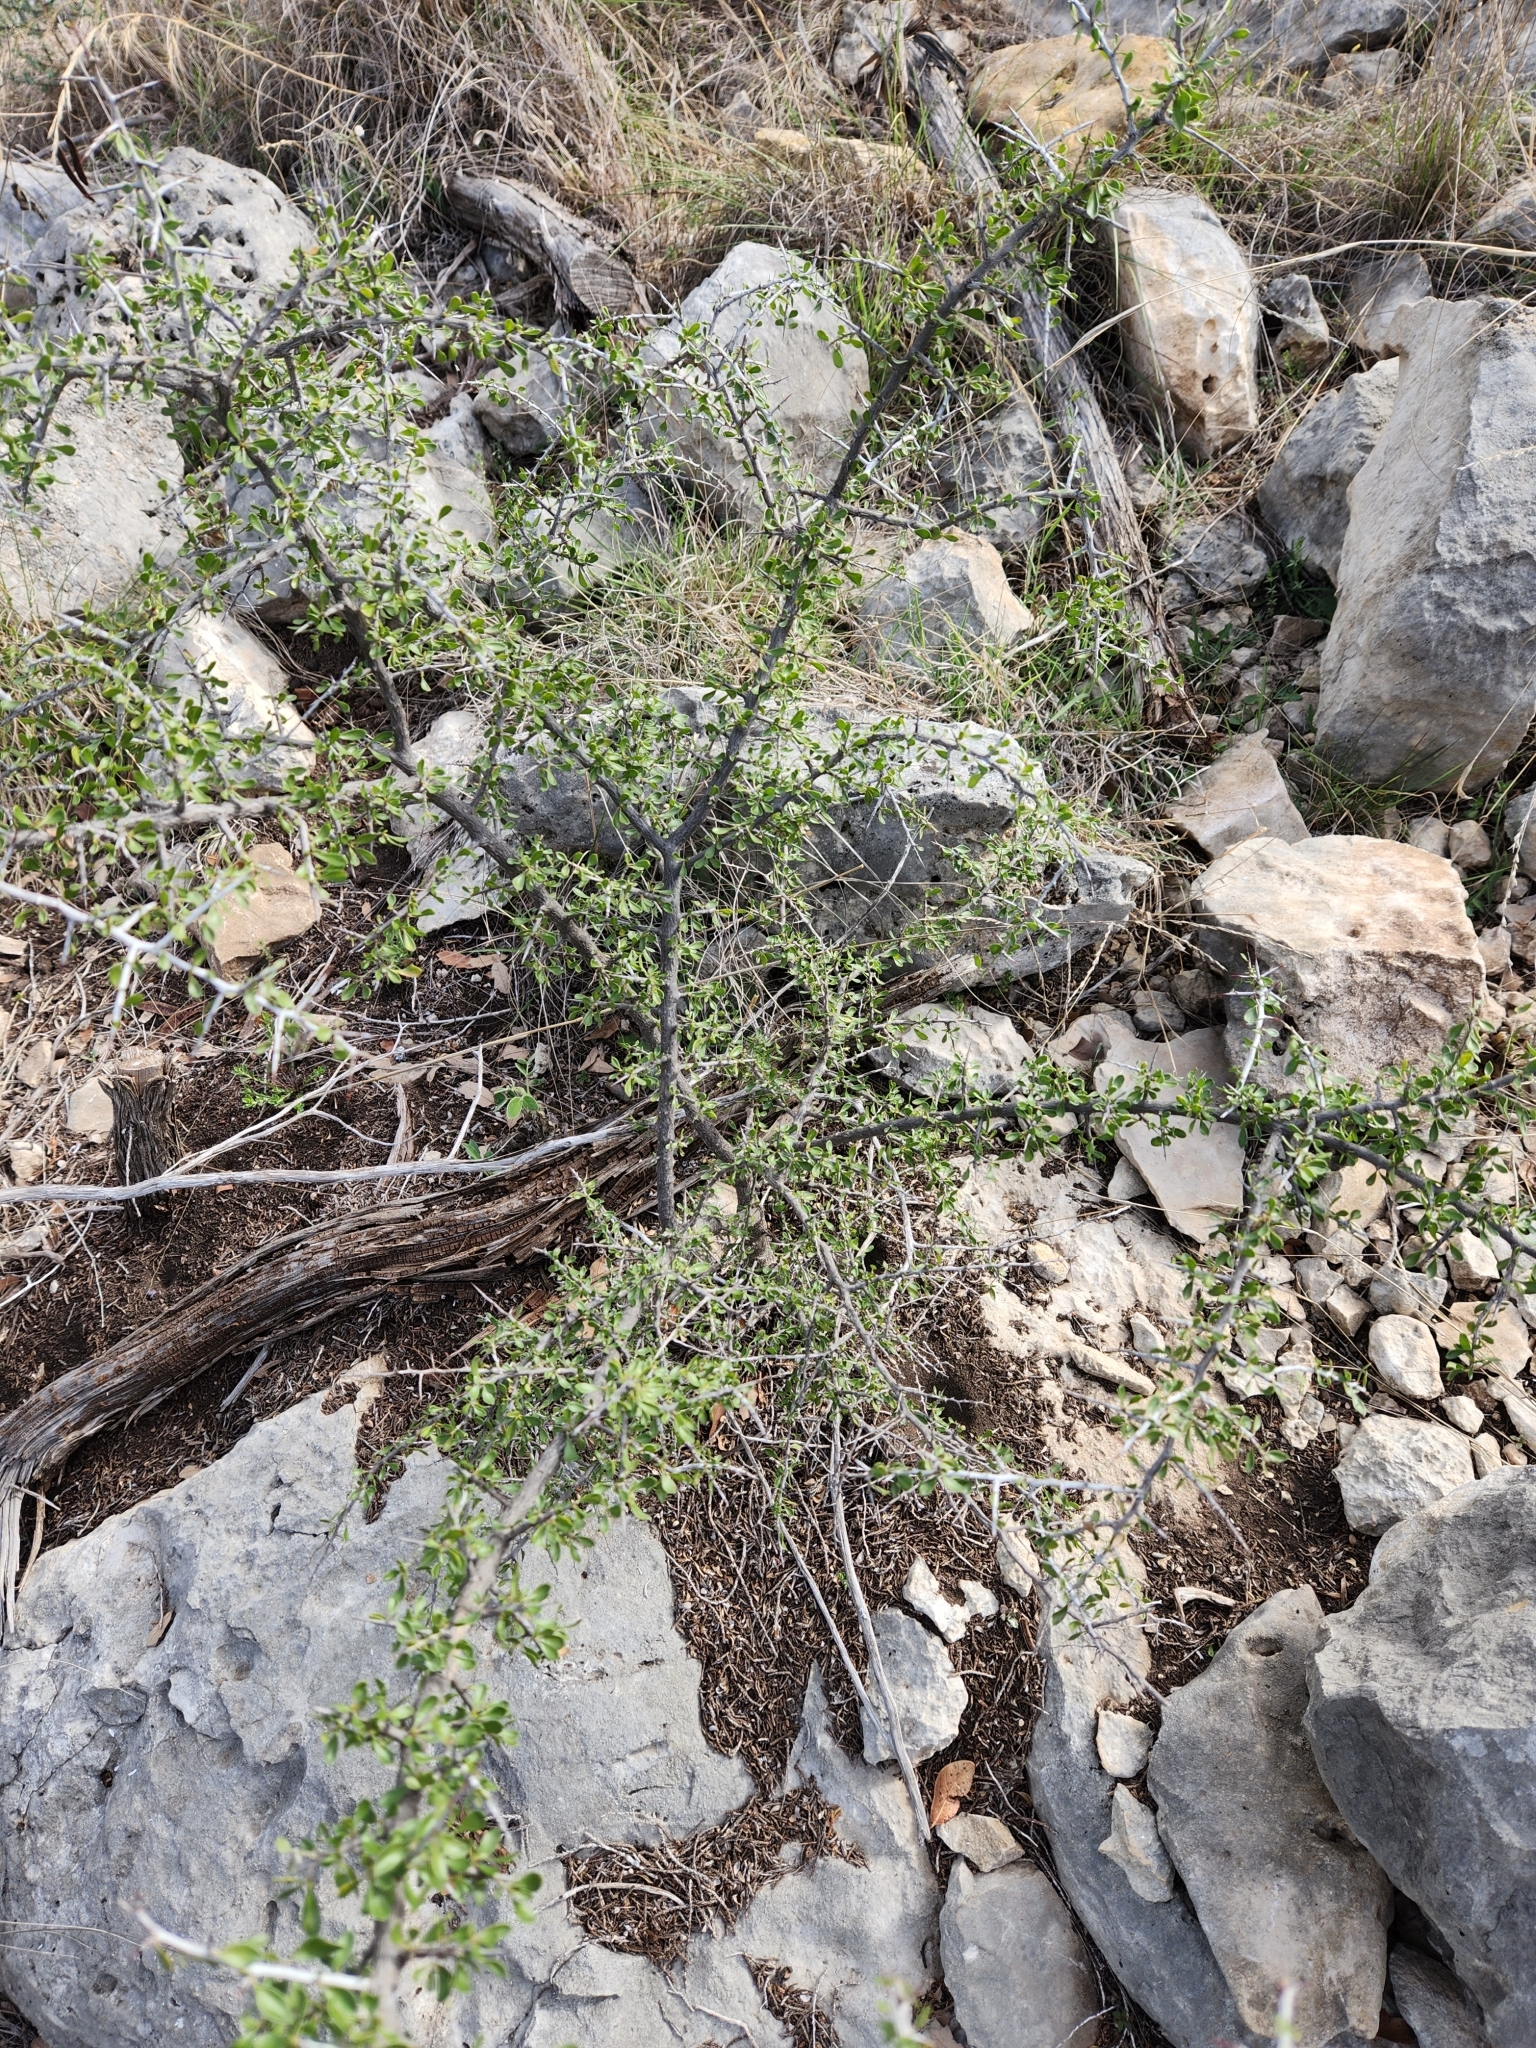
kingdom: Plantae
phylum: Tracheophyta
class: Magnoliopsida
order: Rosales
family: Rhamnaceae
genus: Condalia
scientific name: Condalia viridis
